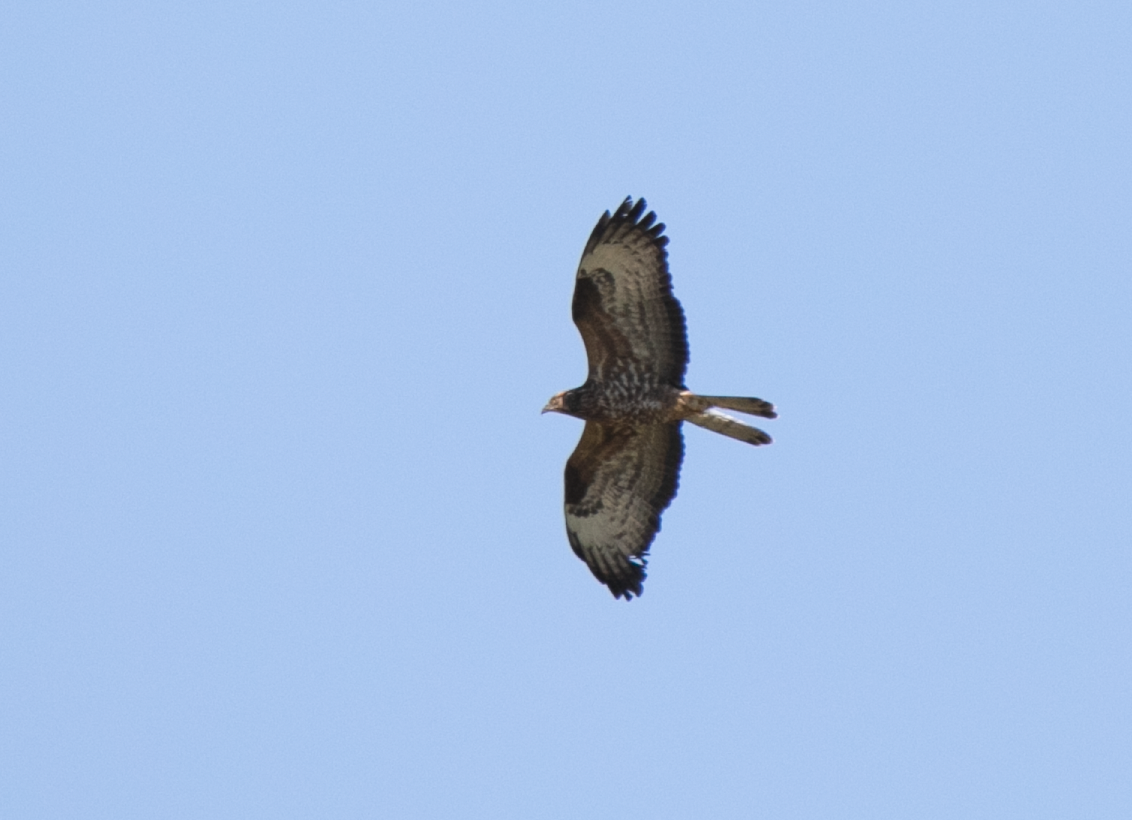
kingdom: Animalia
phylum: Chordata
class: Aves
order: Accipitriformes
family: Accipitridae
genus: Pernis
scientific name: Pernis apivorus
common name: European honey buzzard
